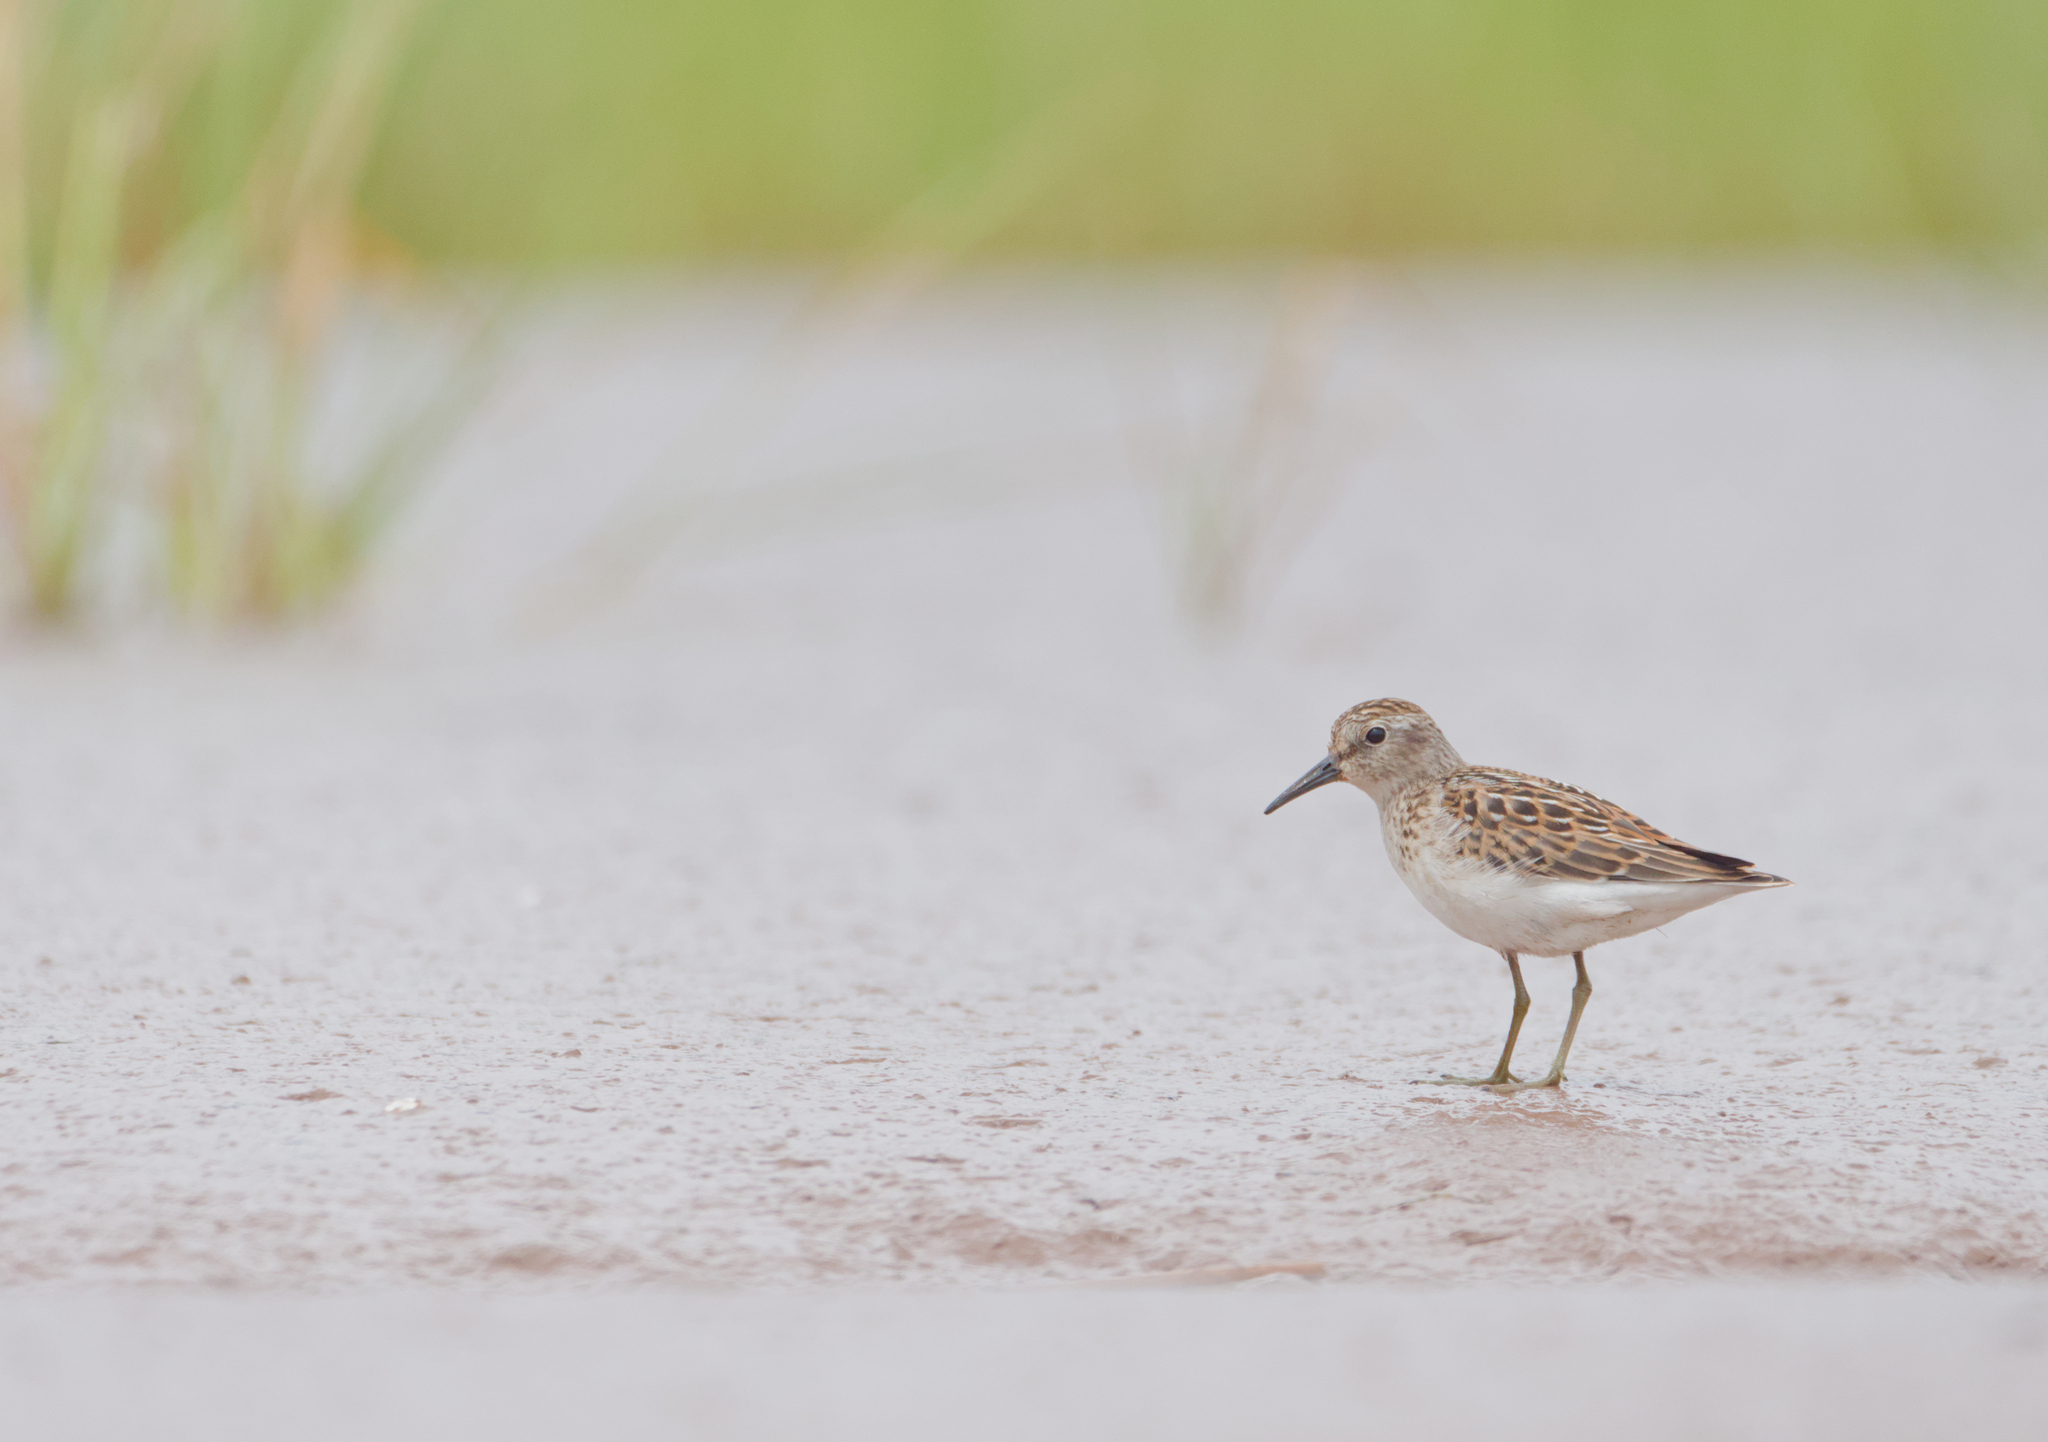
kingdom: Animalia
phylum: Chordata
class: Aves
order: Charadriiformes
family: Scolopacidae
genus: Calidris
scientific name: Calidris minutilla
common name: Least sandpiper
